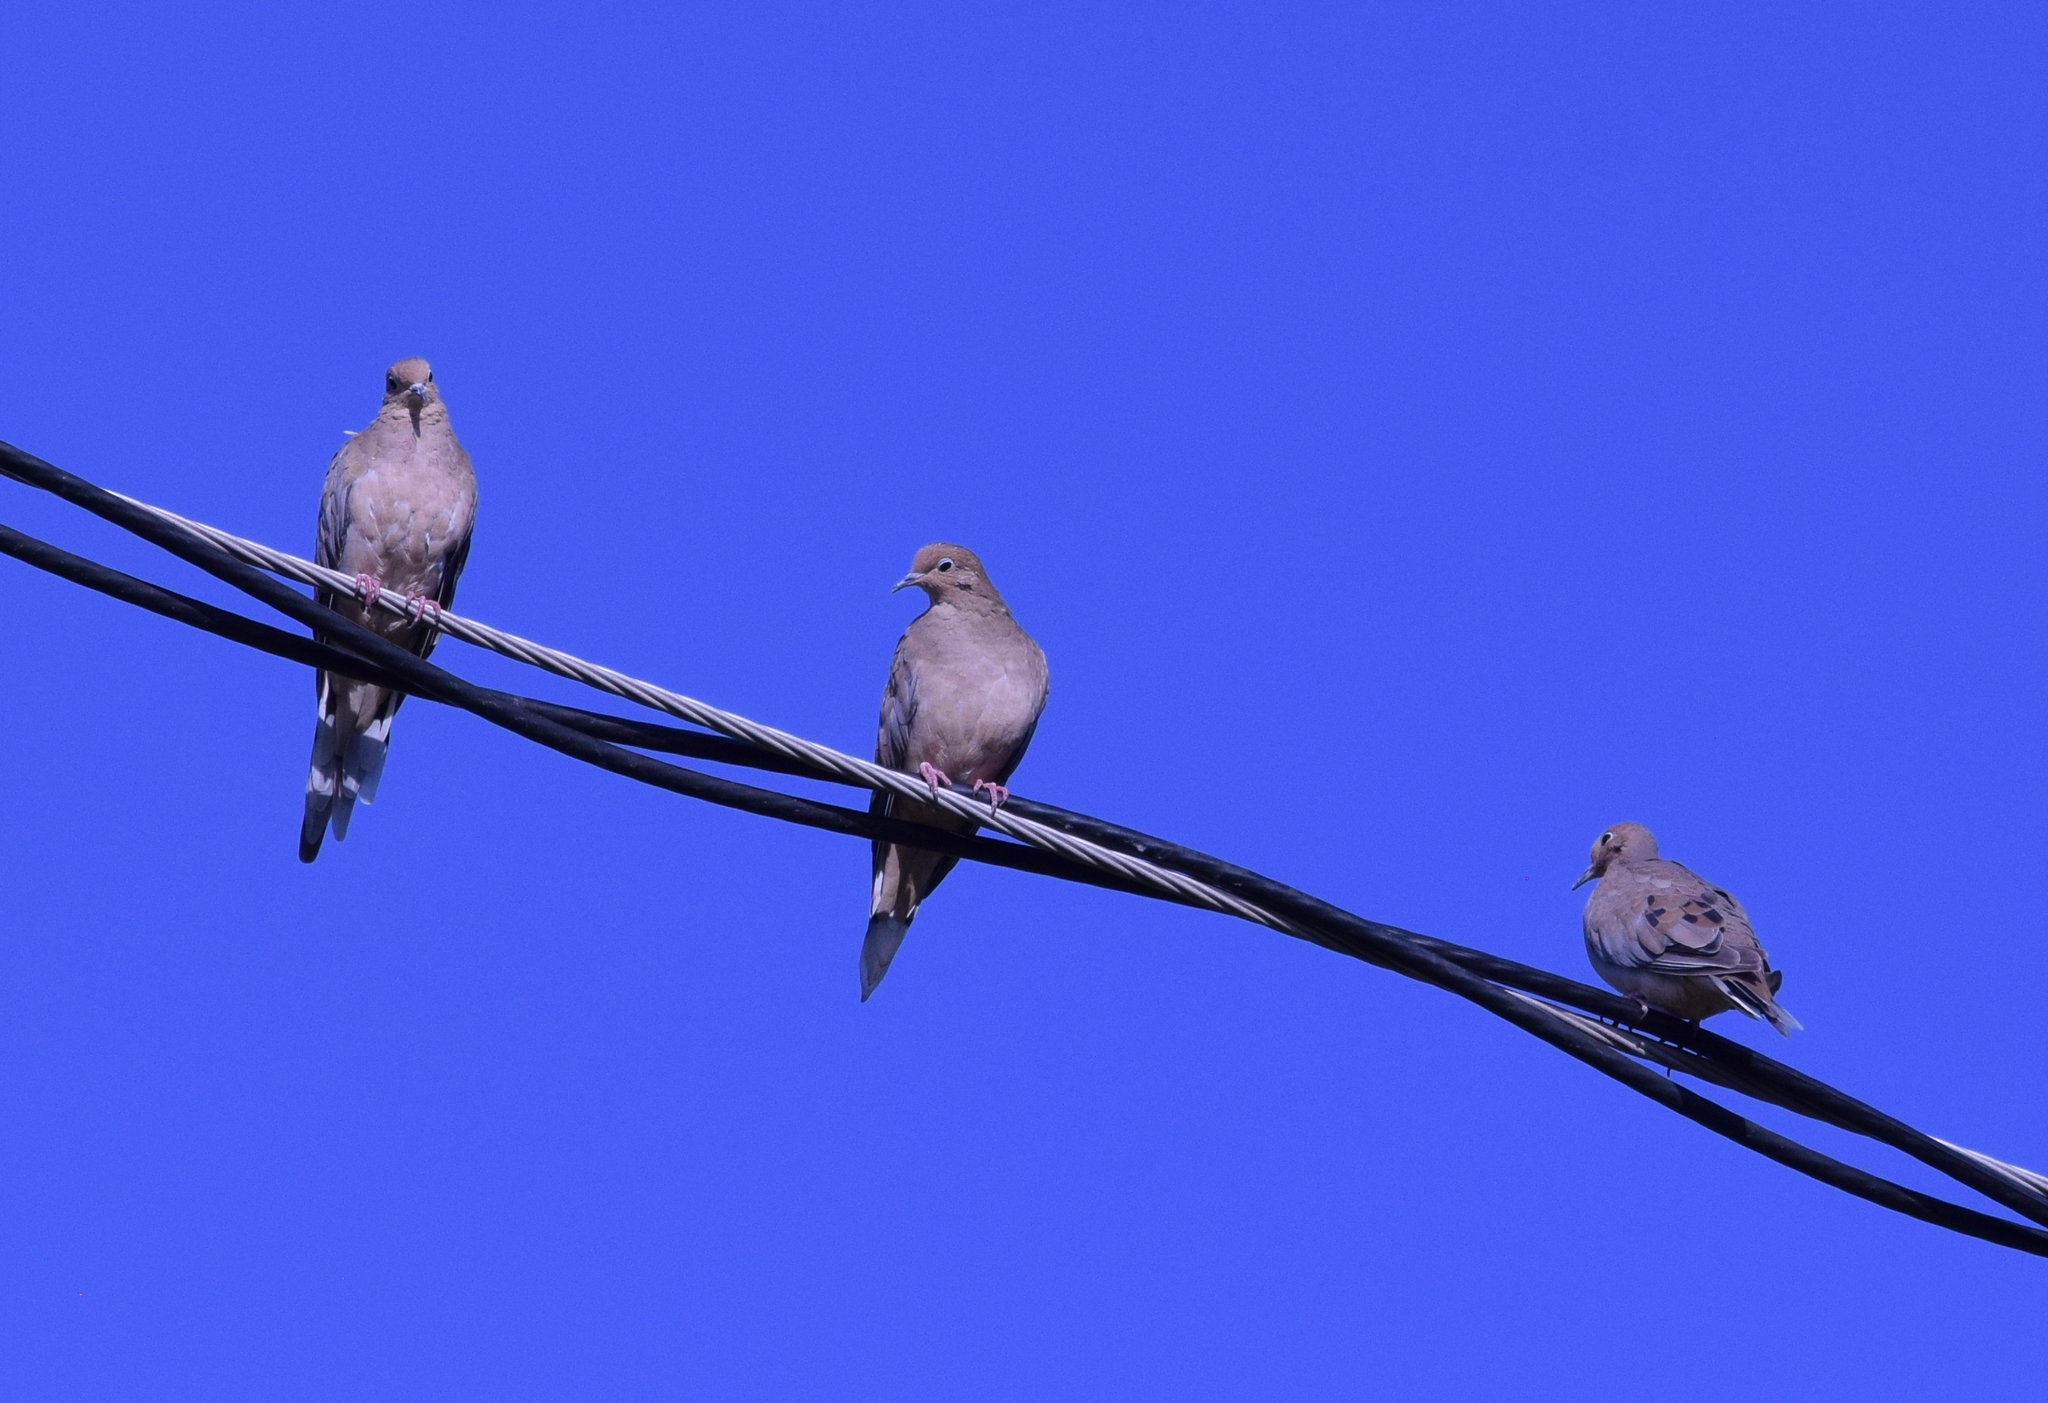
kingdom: Animalia
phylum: Chordata
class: Aves
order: Columbiformes
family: Columbidae
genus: Zenaida
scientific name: Zenaida macroura
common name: Mourning dove
